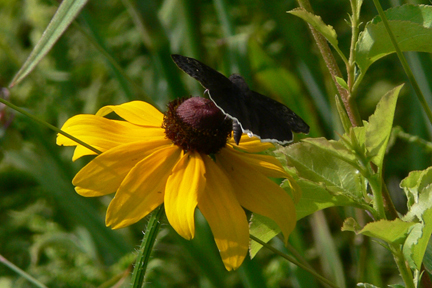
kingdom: Animalia
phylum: Arthropoda
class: Insecta
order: Lepidoptera
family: Hesperiidae
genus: Erynnis
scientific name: Erynnis funeralis
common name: Funereal duskywing
